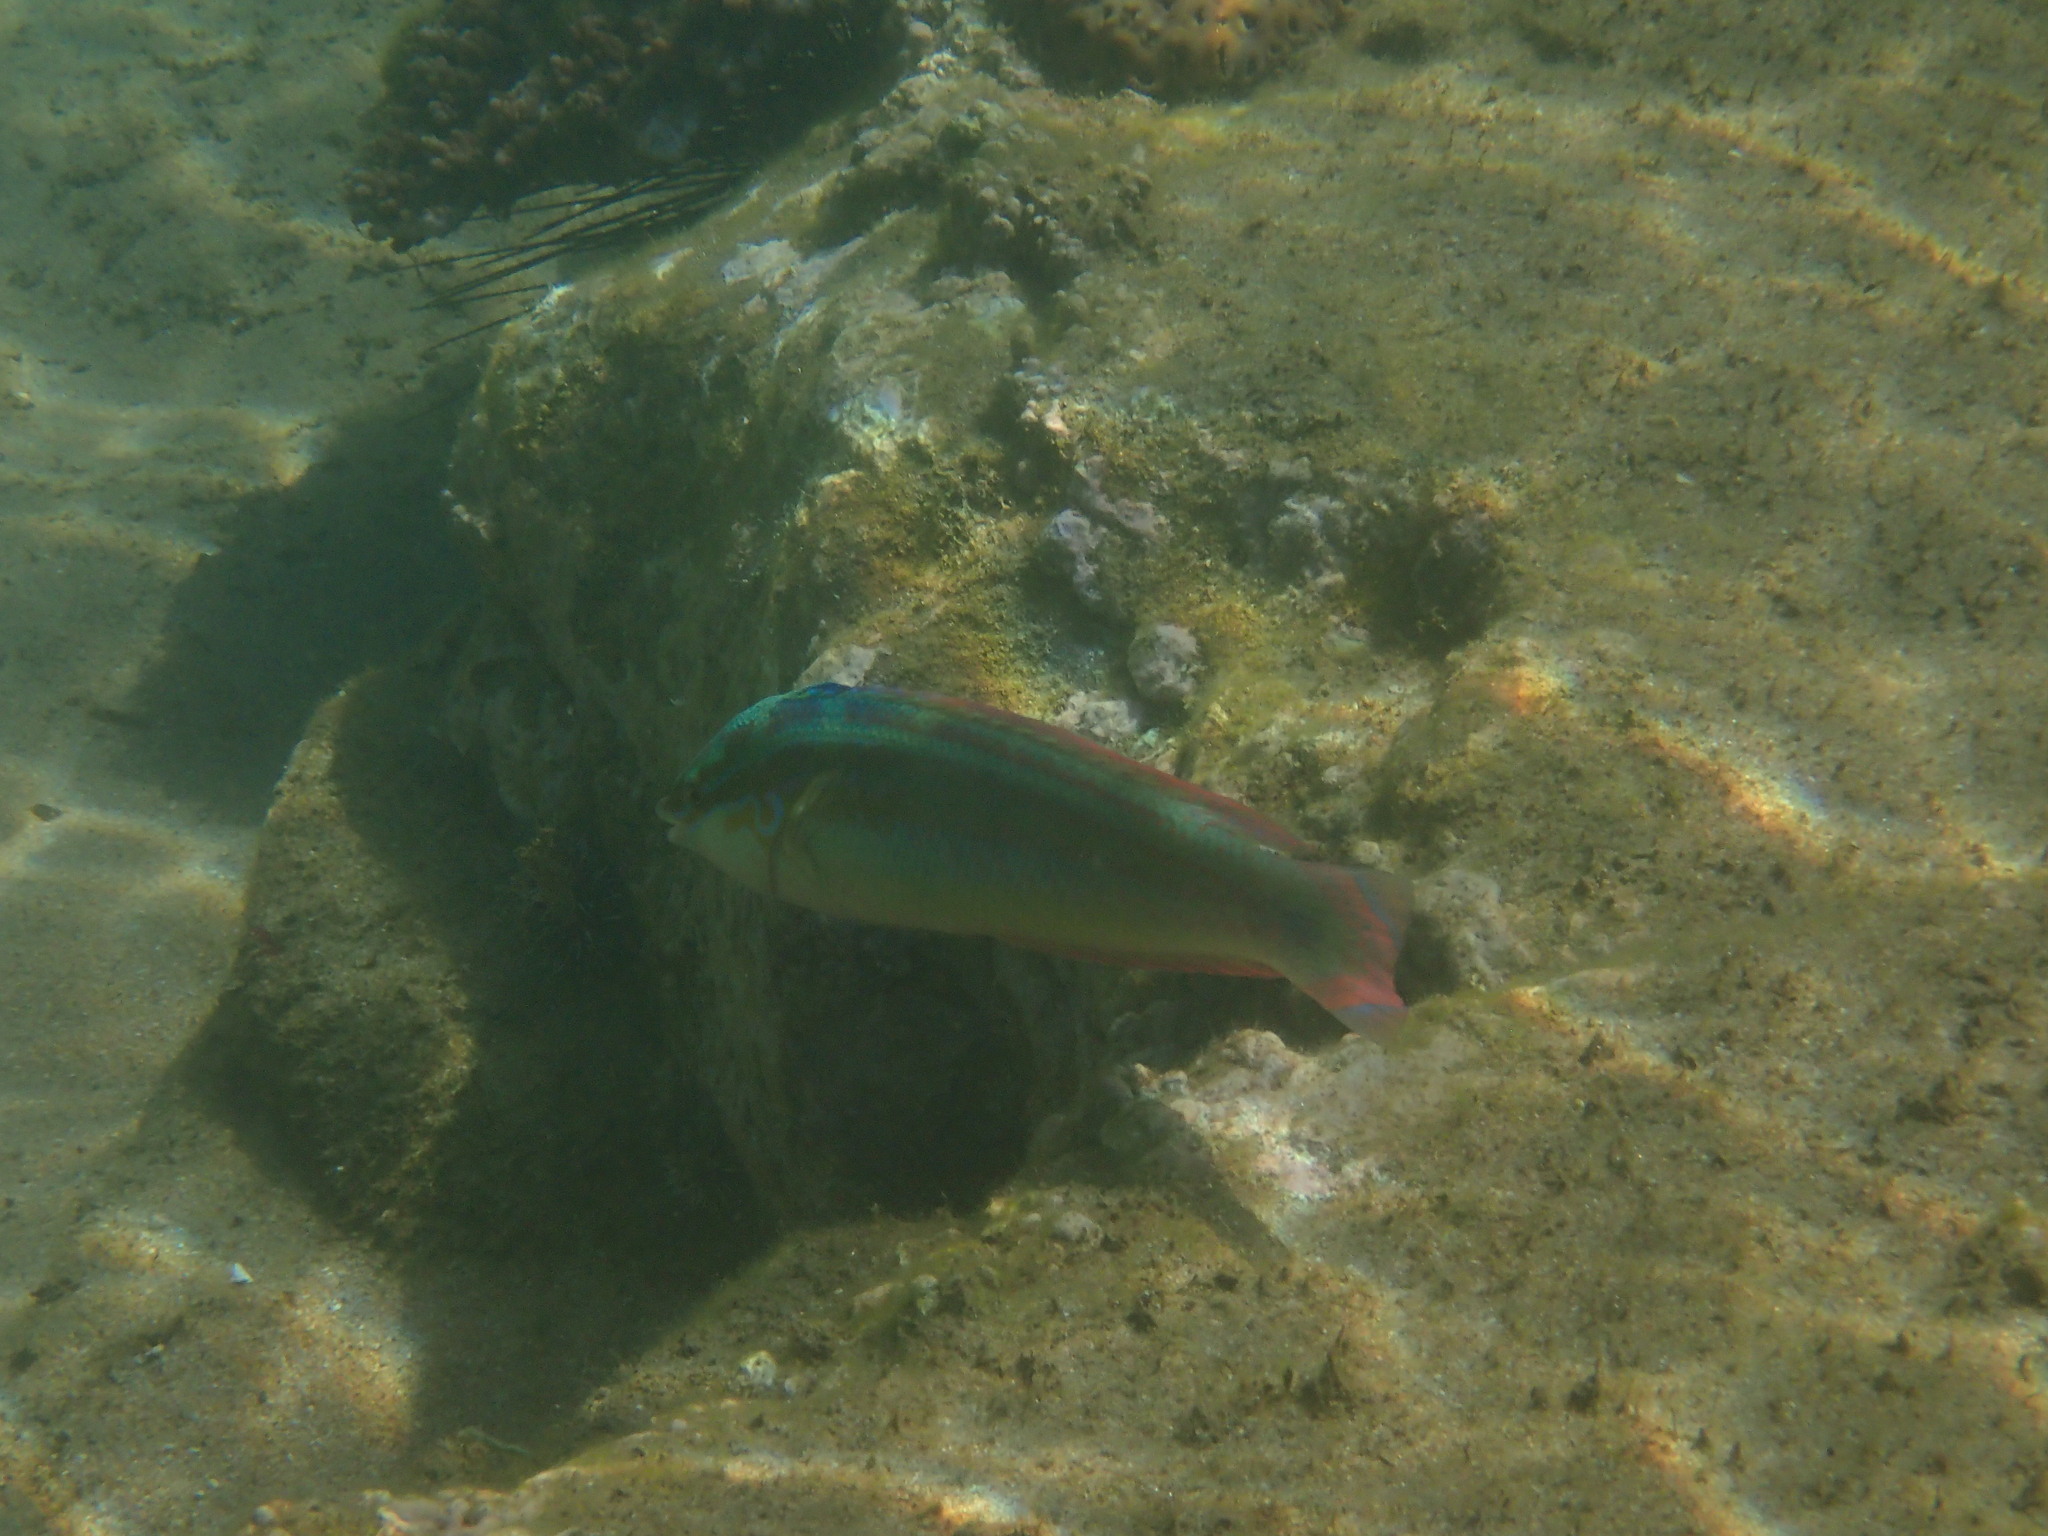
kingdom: Animalia
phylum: Chordata
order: Perciformes
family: Labridae
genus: Coris
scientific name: Coris caudimacula
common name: Spottail coris
